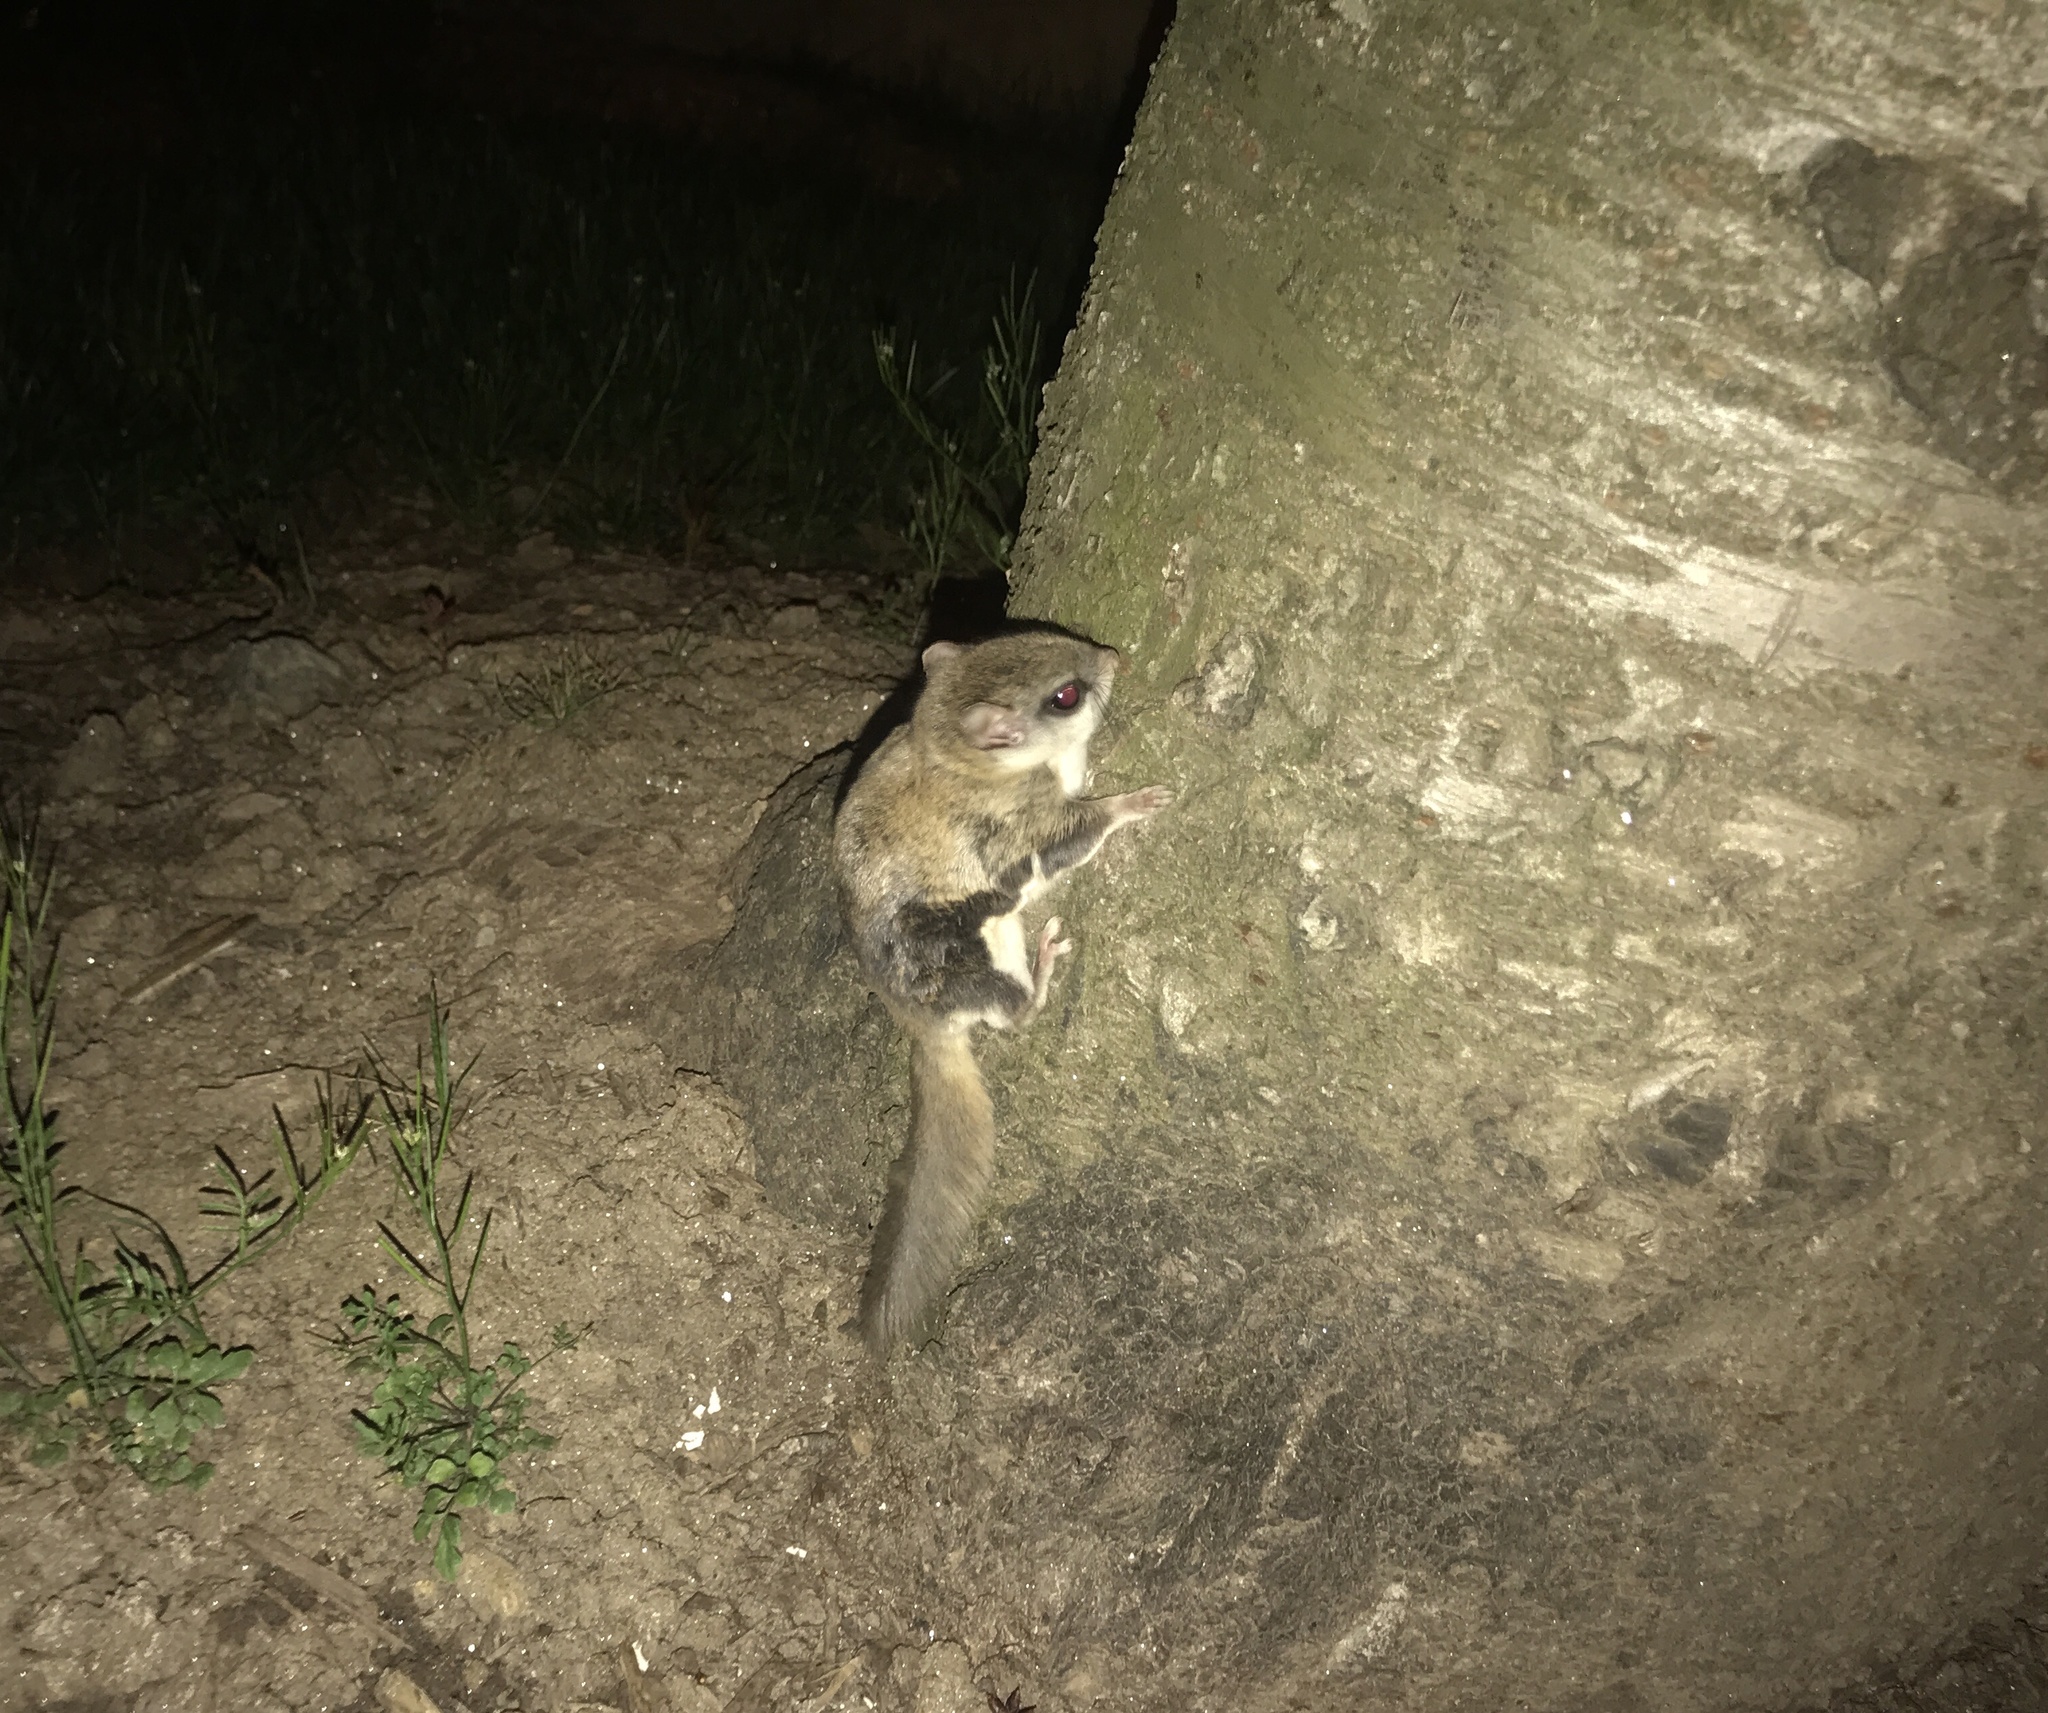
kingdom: Animalia
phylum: Chordata
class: Mammalia
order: Rodentia
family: Sciuridae
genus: Glaucomys
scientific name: Glaucomys volans
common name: Southern flying squirrel
